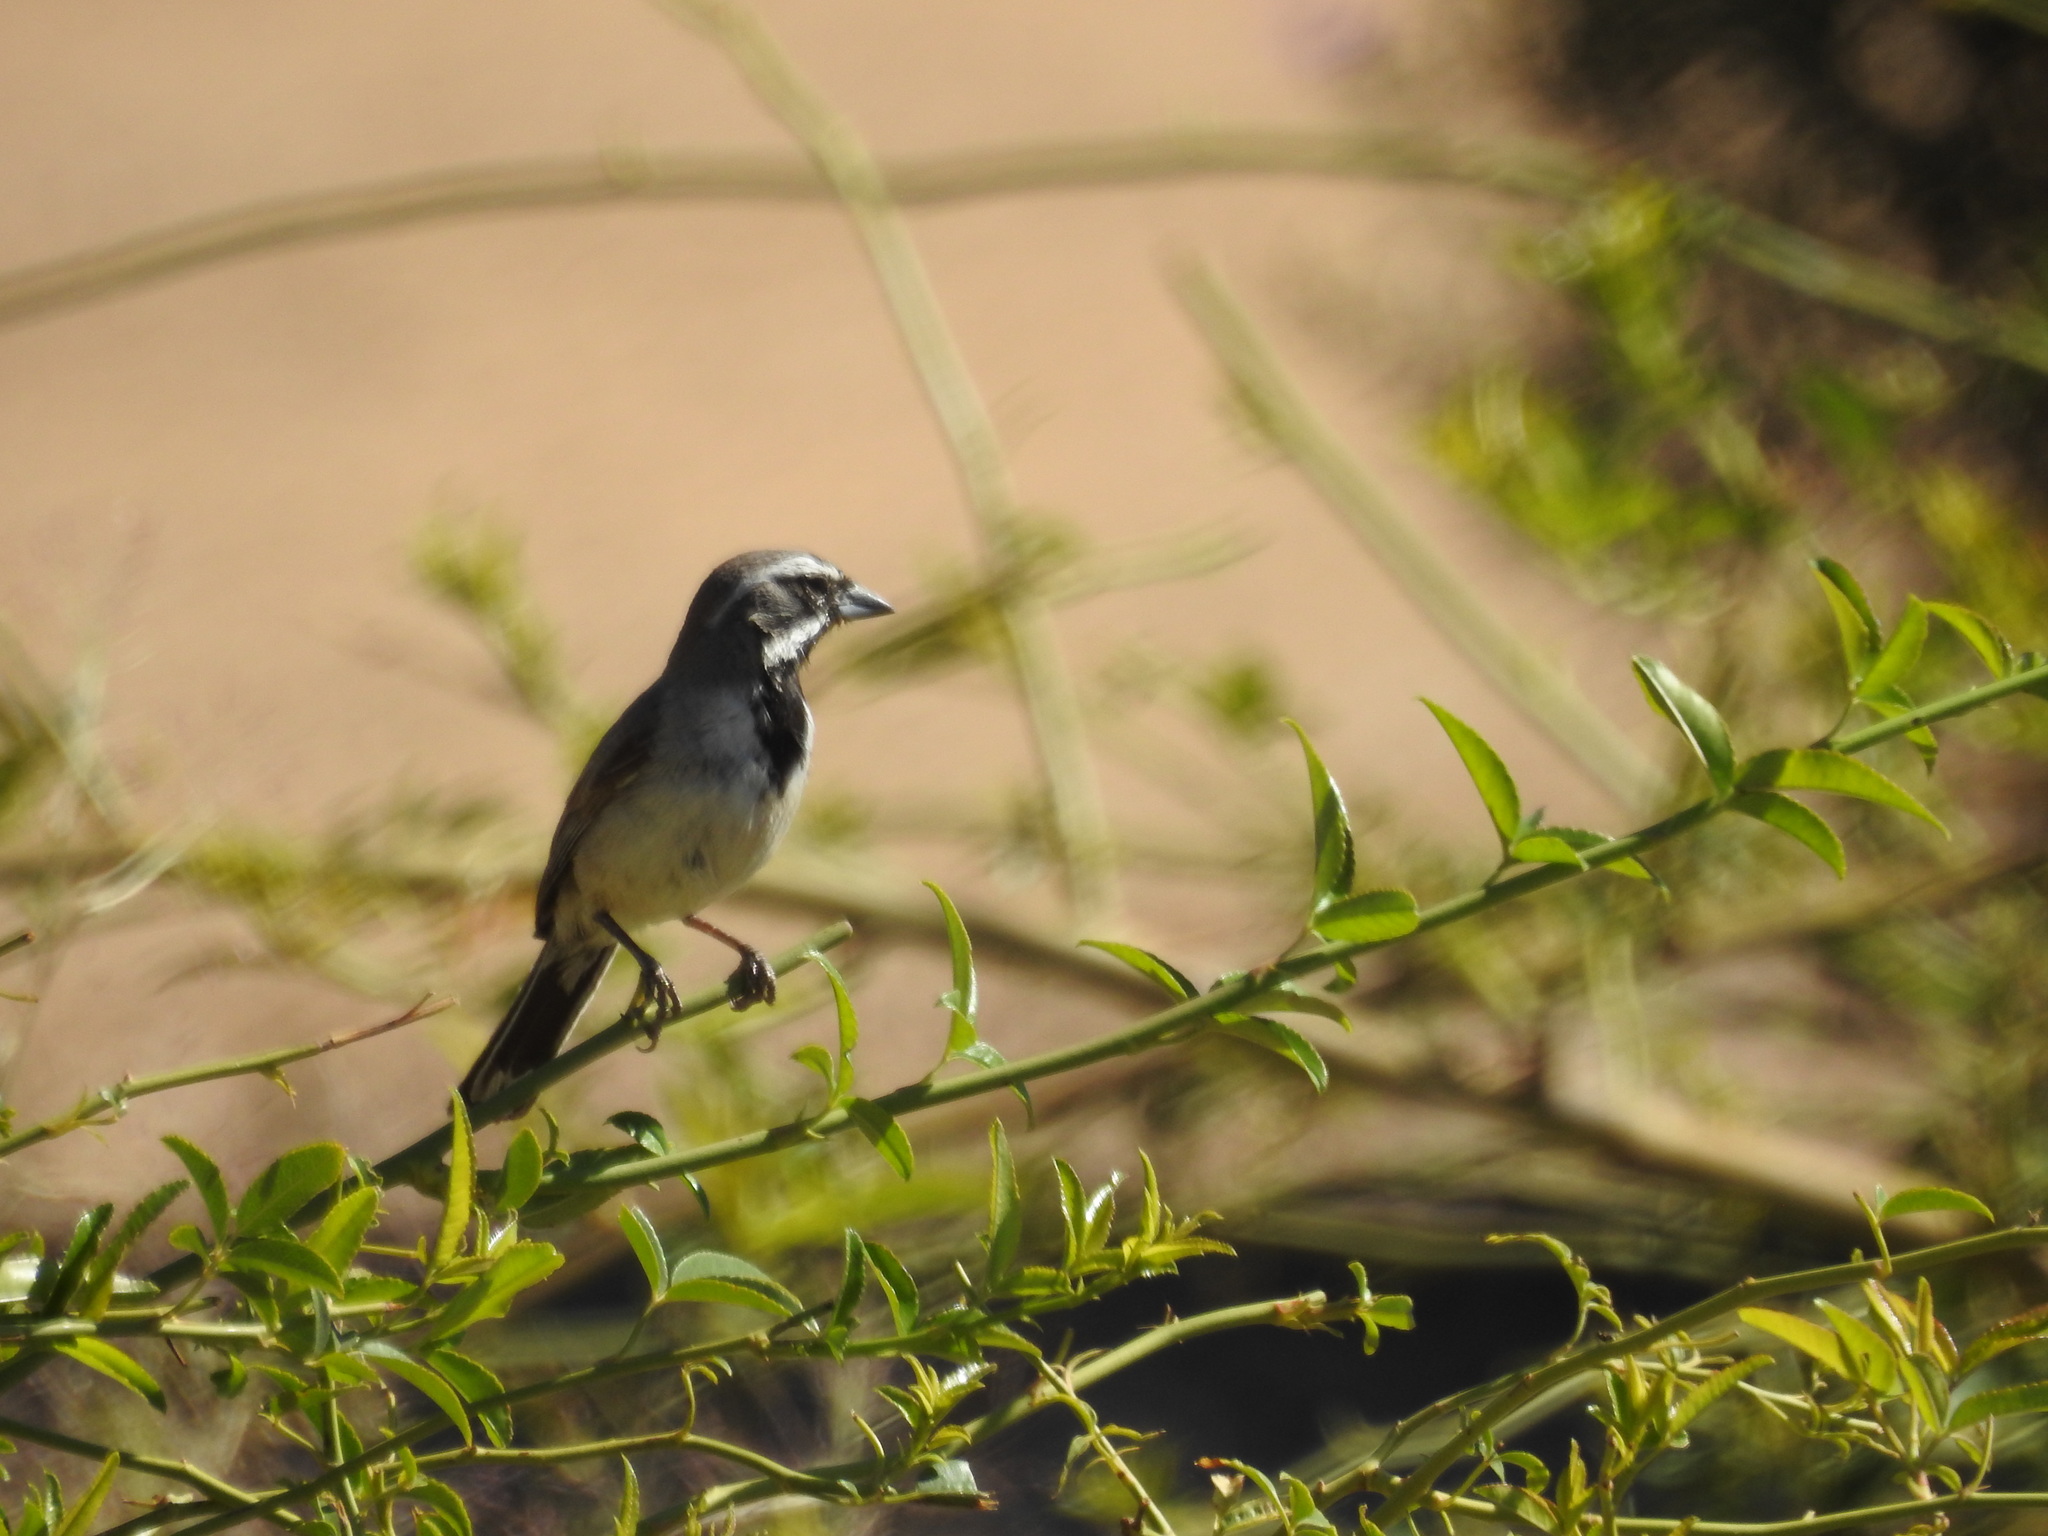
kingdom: Animalia
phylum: Chordata
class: Aves
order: Passeriformes
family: Passerellidae
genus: Amphispiza
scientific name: Amphispiza bilineata
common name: Black-throated sparrow
